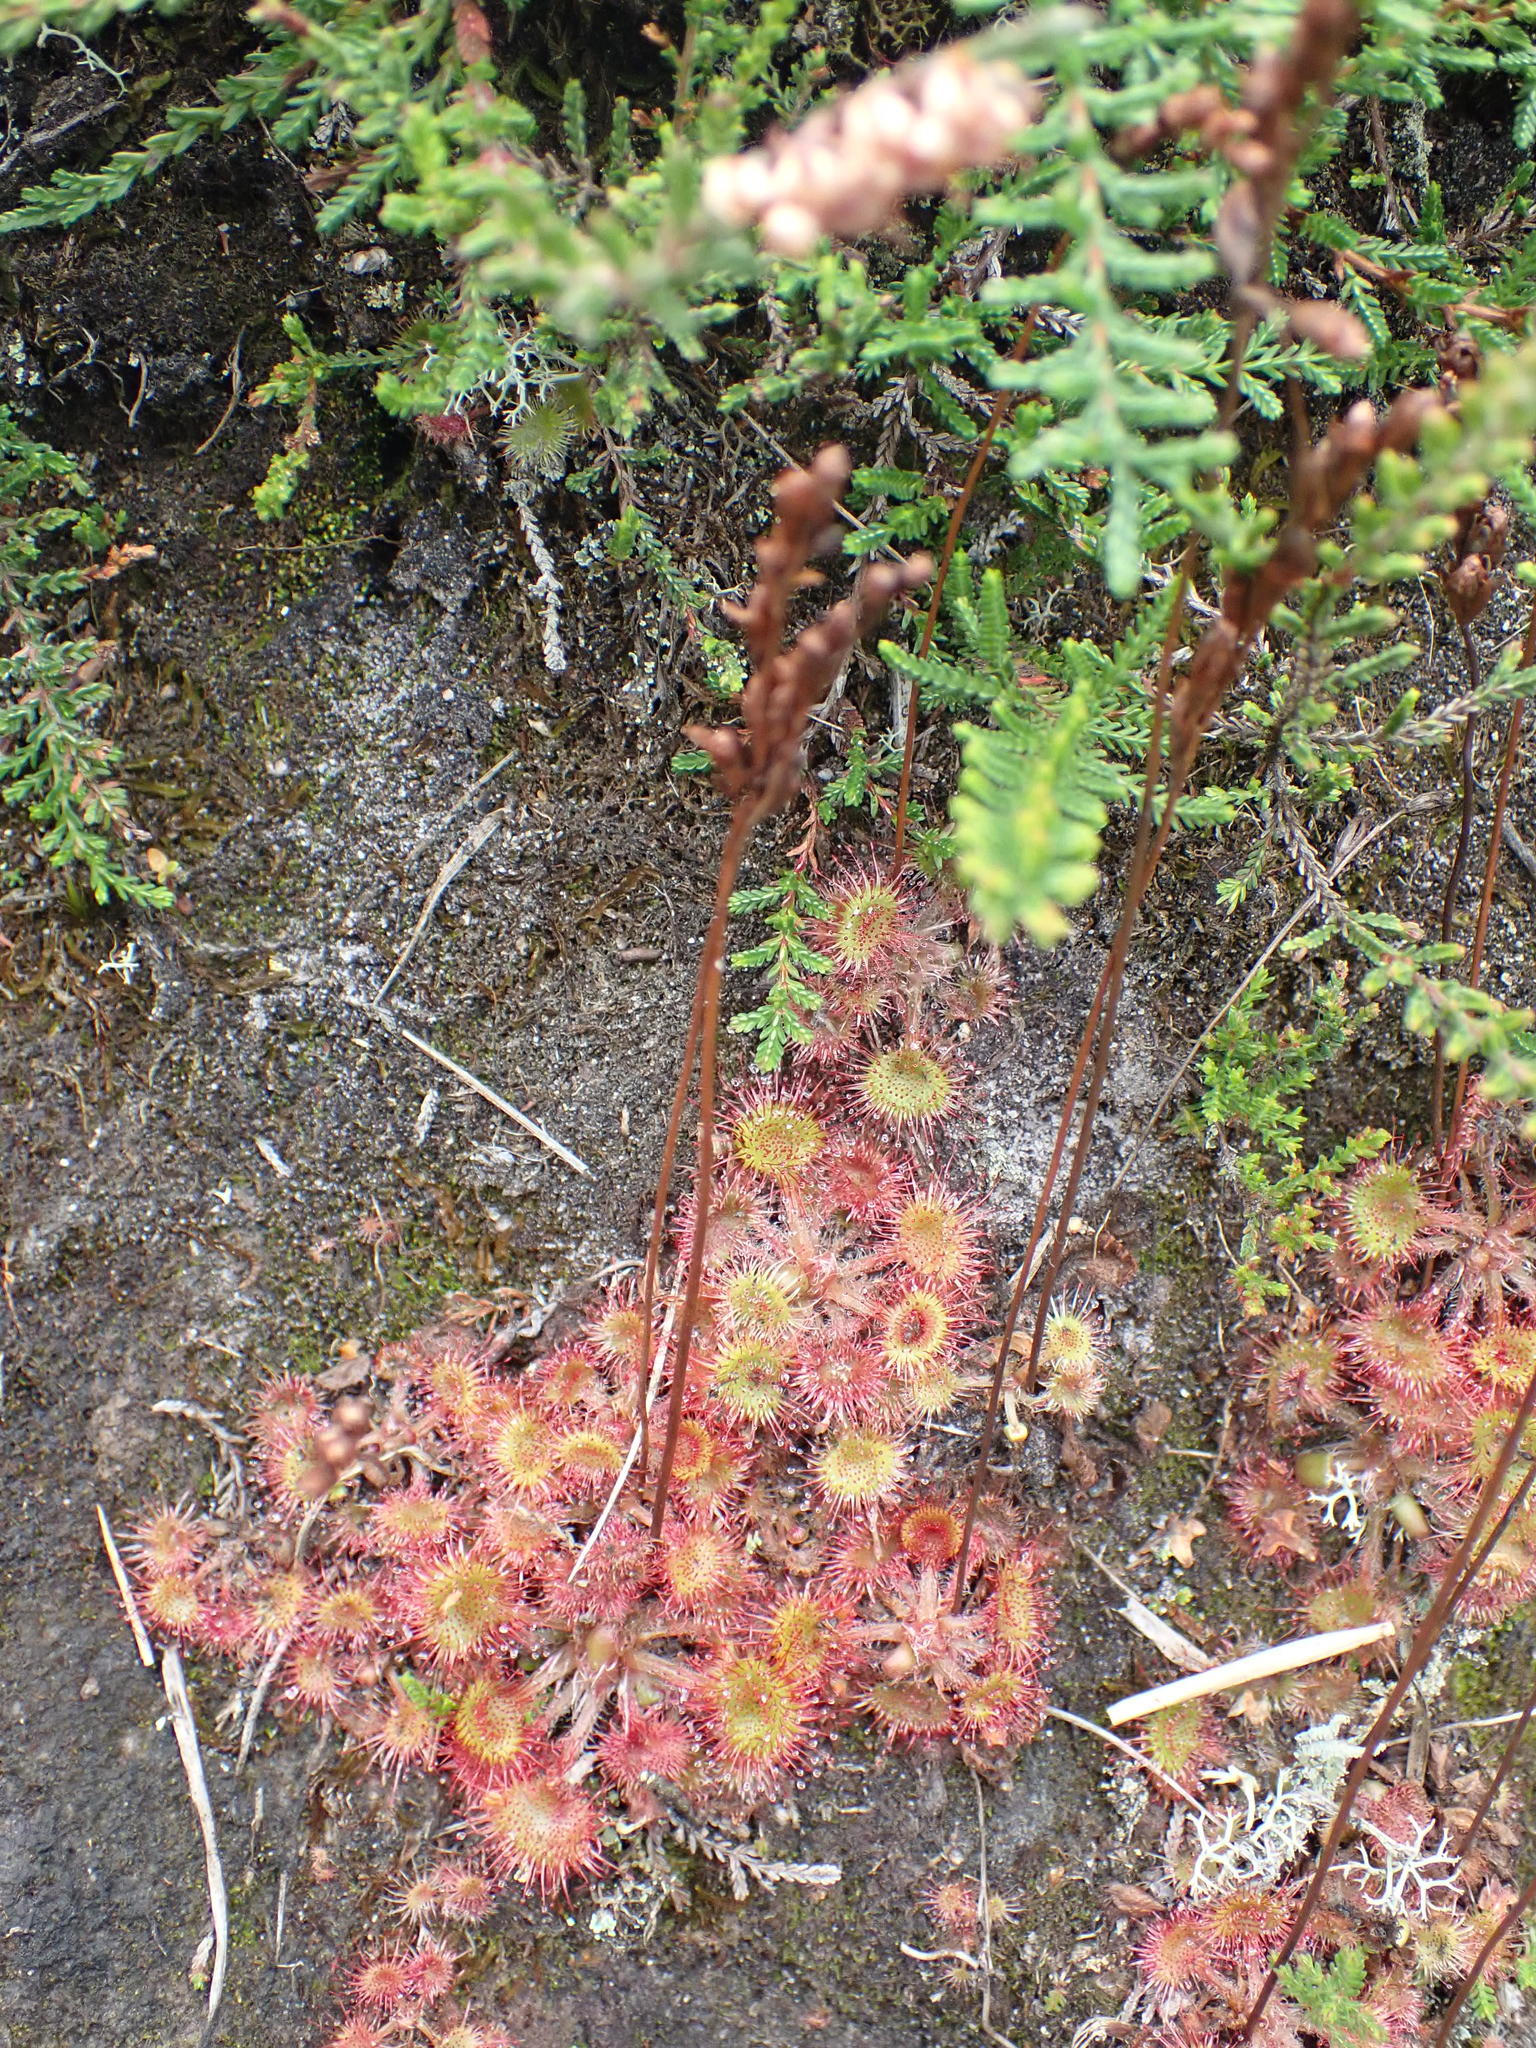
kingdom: Plantae
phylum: Tracheophyta
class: Magnoliopsida
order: Caryophyllales
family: Droseraceae
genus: Drosera
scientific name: Drosera rotundifolia
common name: Round-leaved sundew
